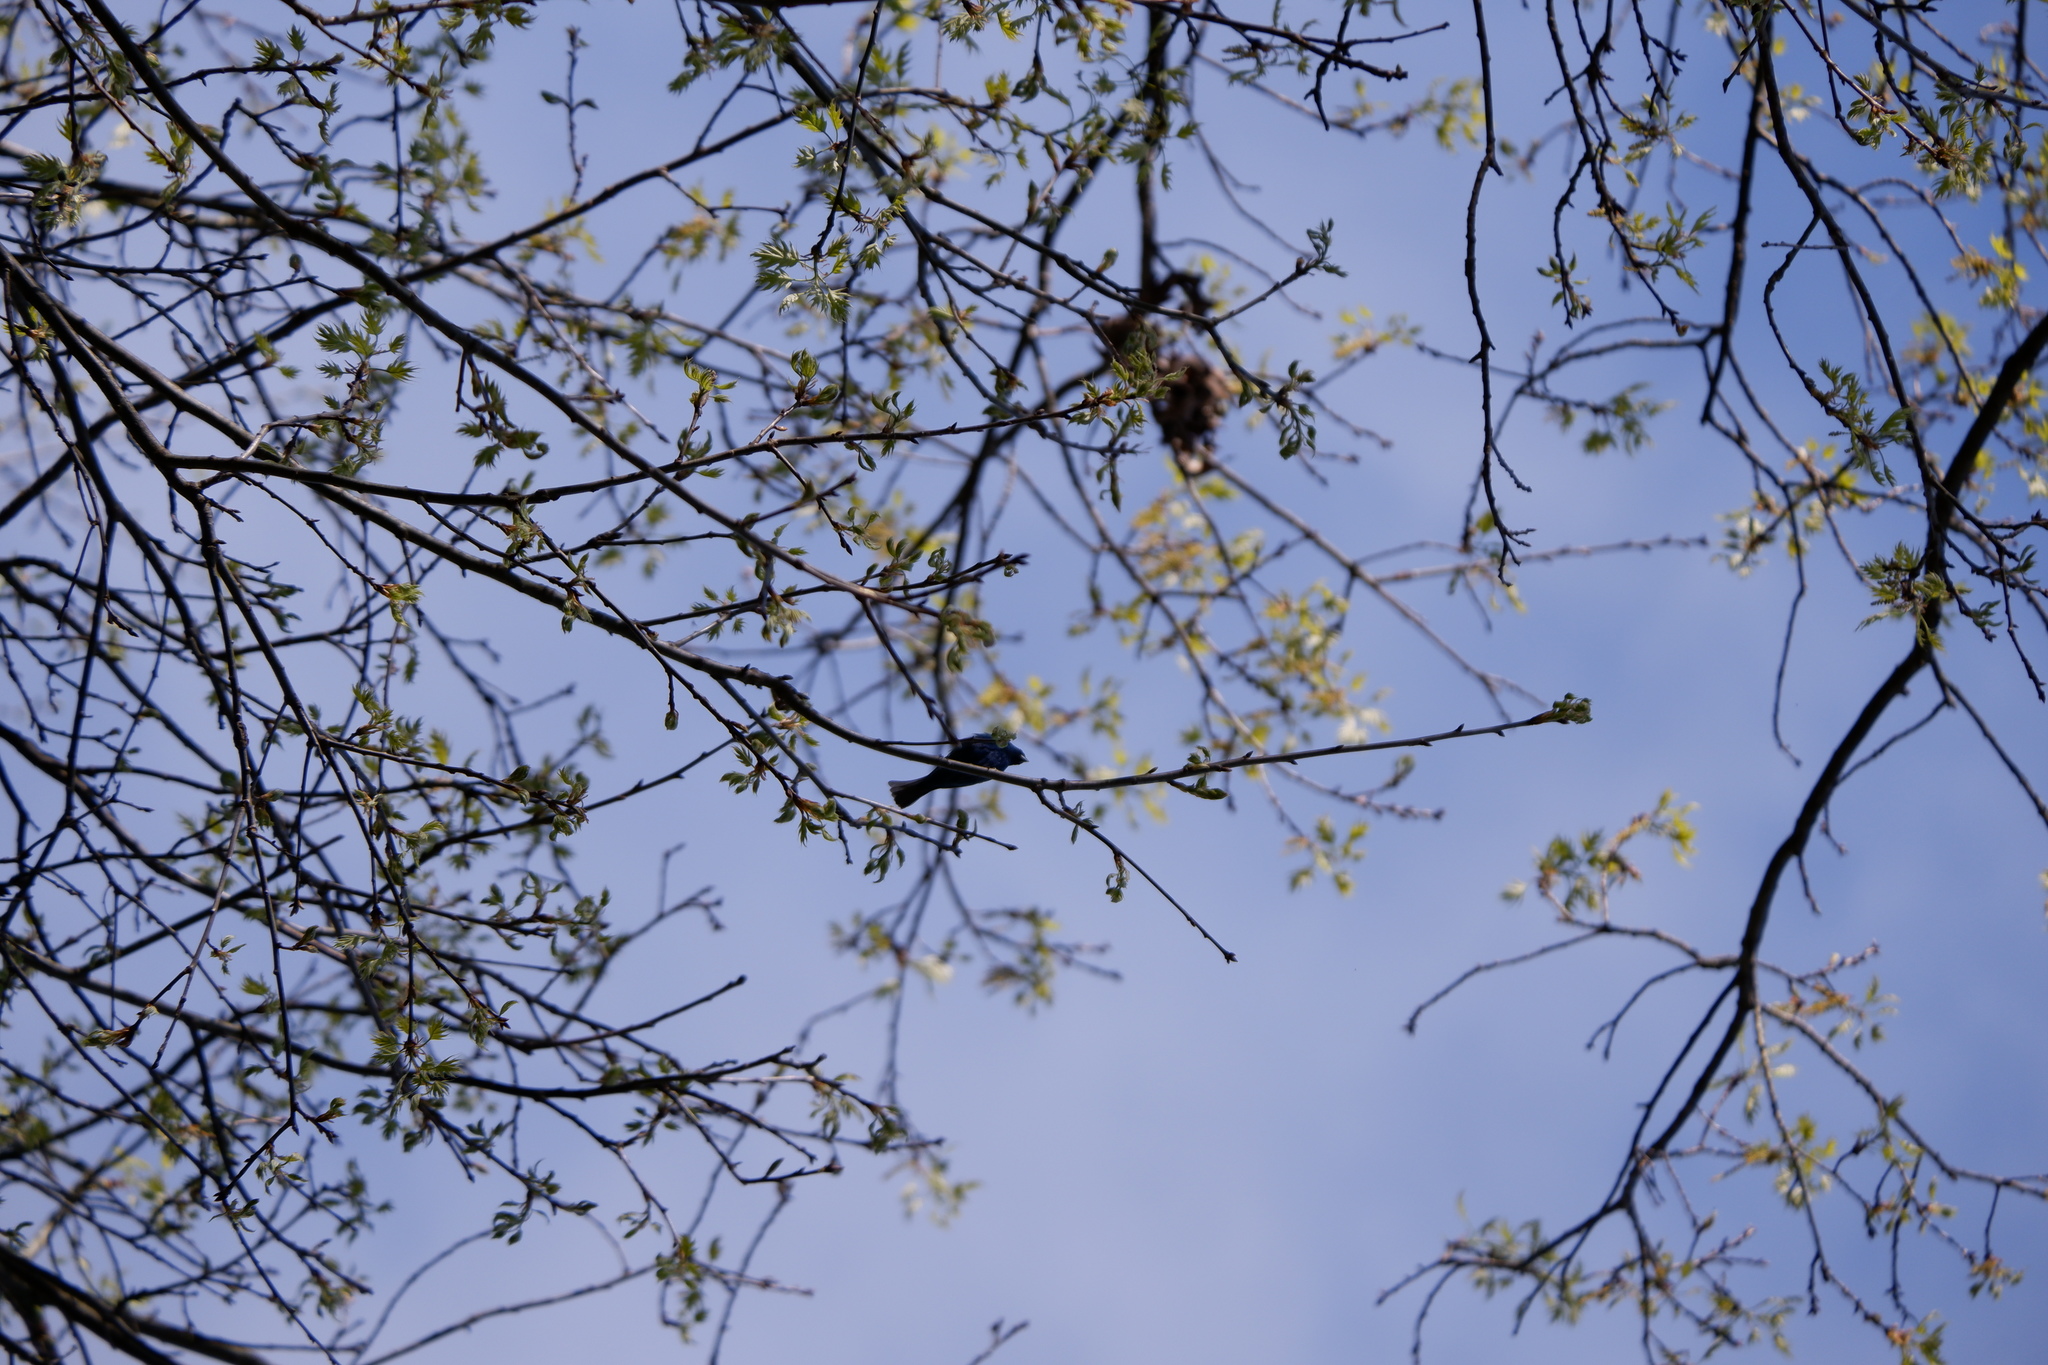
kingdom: Animalia
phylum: Chordata
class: Aves
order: Passeriformes
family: Cardinalidae
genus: Passerina
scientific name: Passerina cyanea
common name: Indigo bunting
